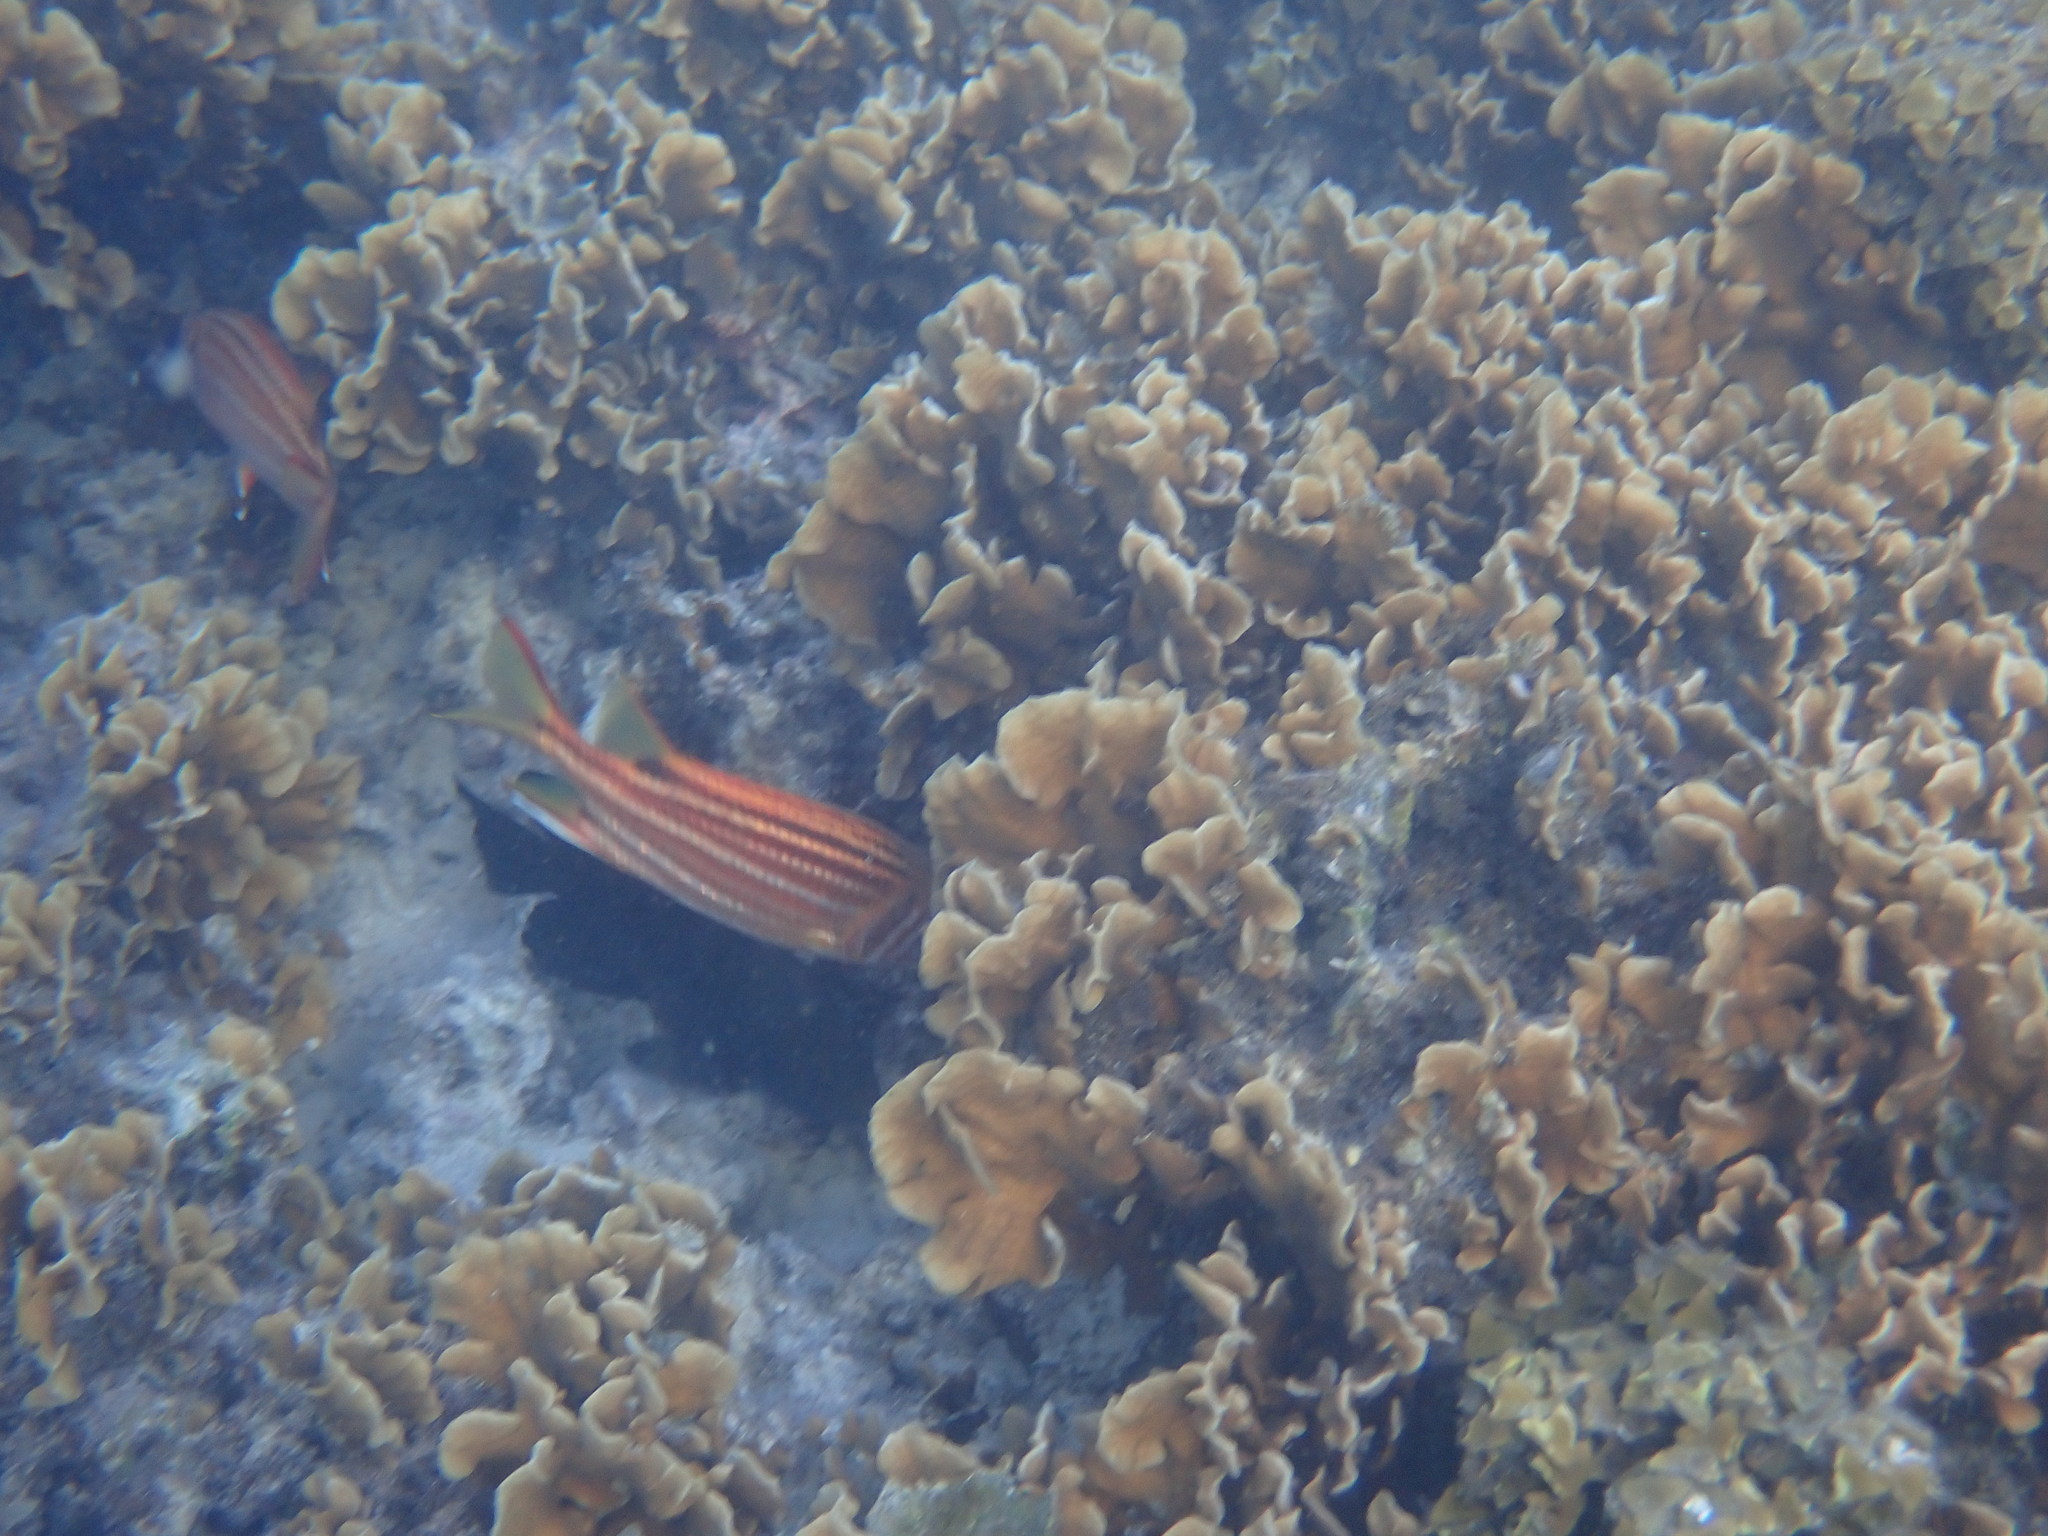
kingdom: Animalia
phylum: Chordata
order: Beryciformes
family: Holocentridae
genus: Sargocentron
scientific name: Sargocentron rubrum
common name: Redcoat
